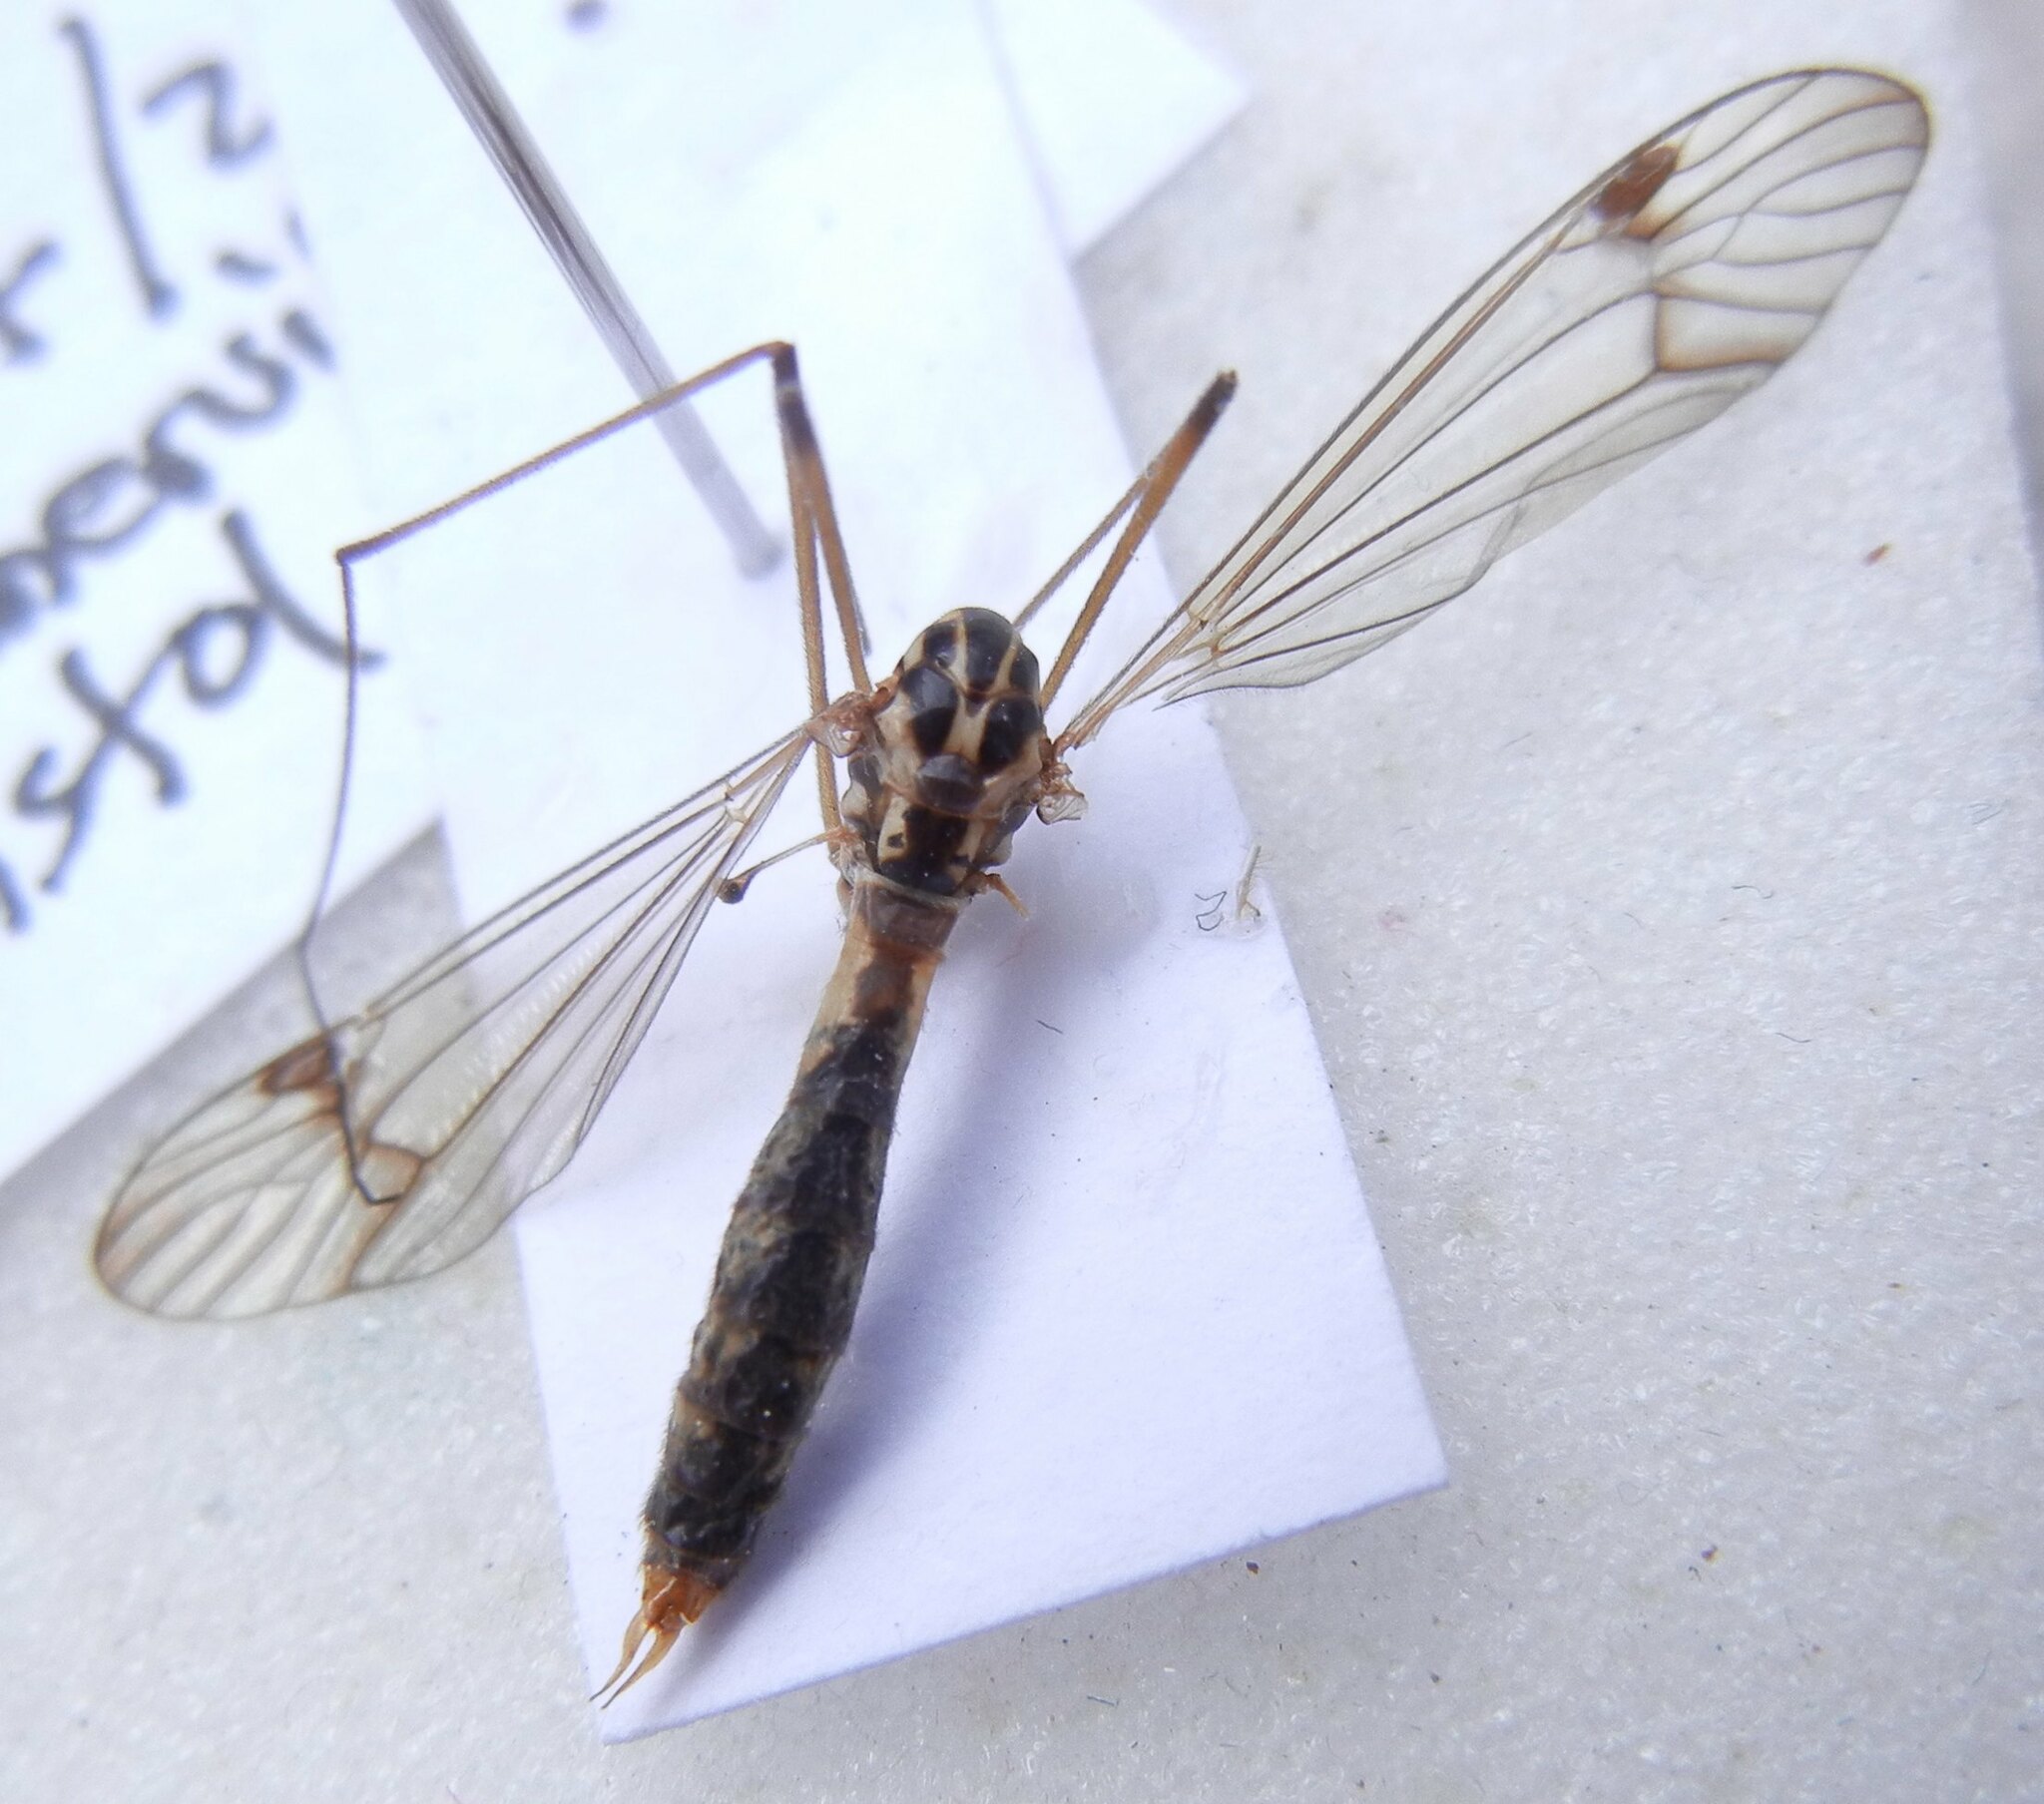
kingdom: Animalia
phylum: Arthropoda
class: Insecta
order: Diptera
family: Tipulidae
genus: Nephrotoma
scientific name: Nephrotoma quadrifaria
